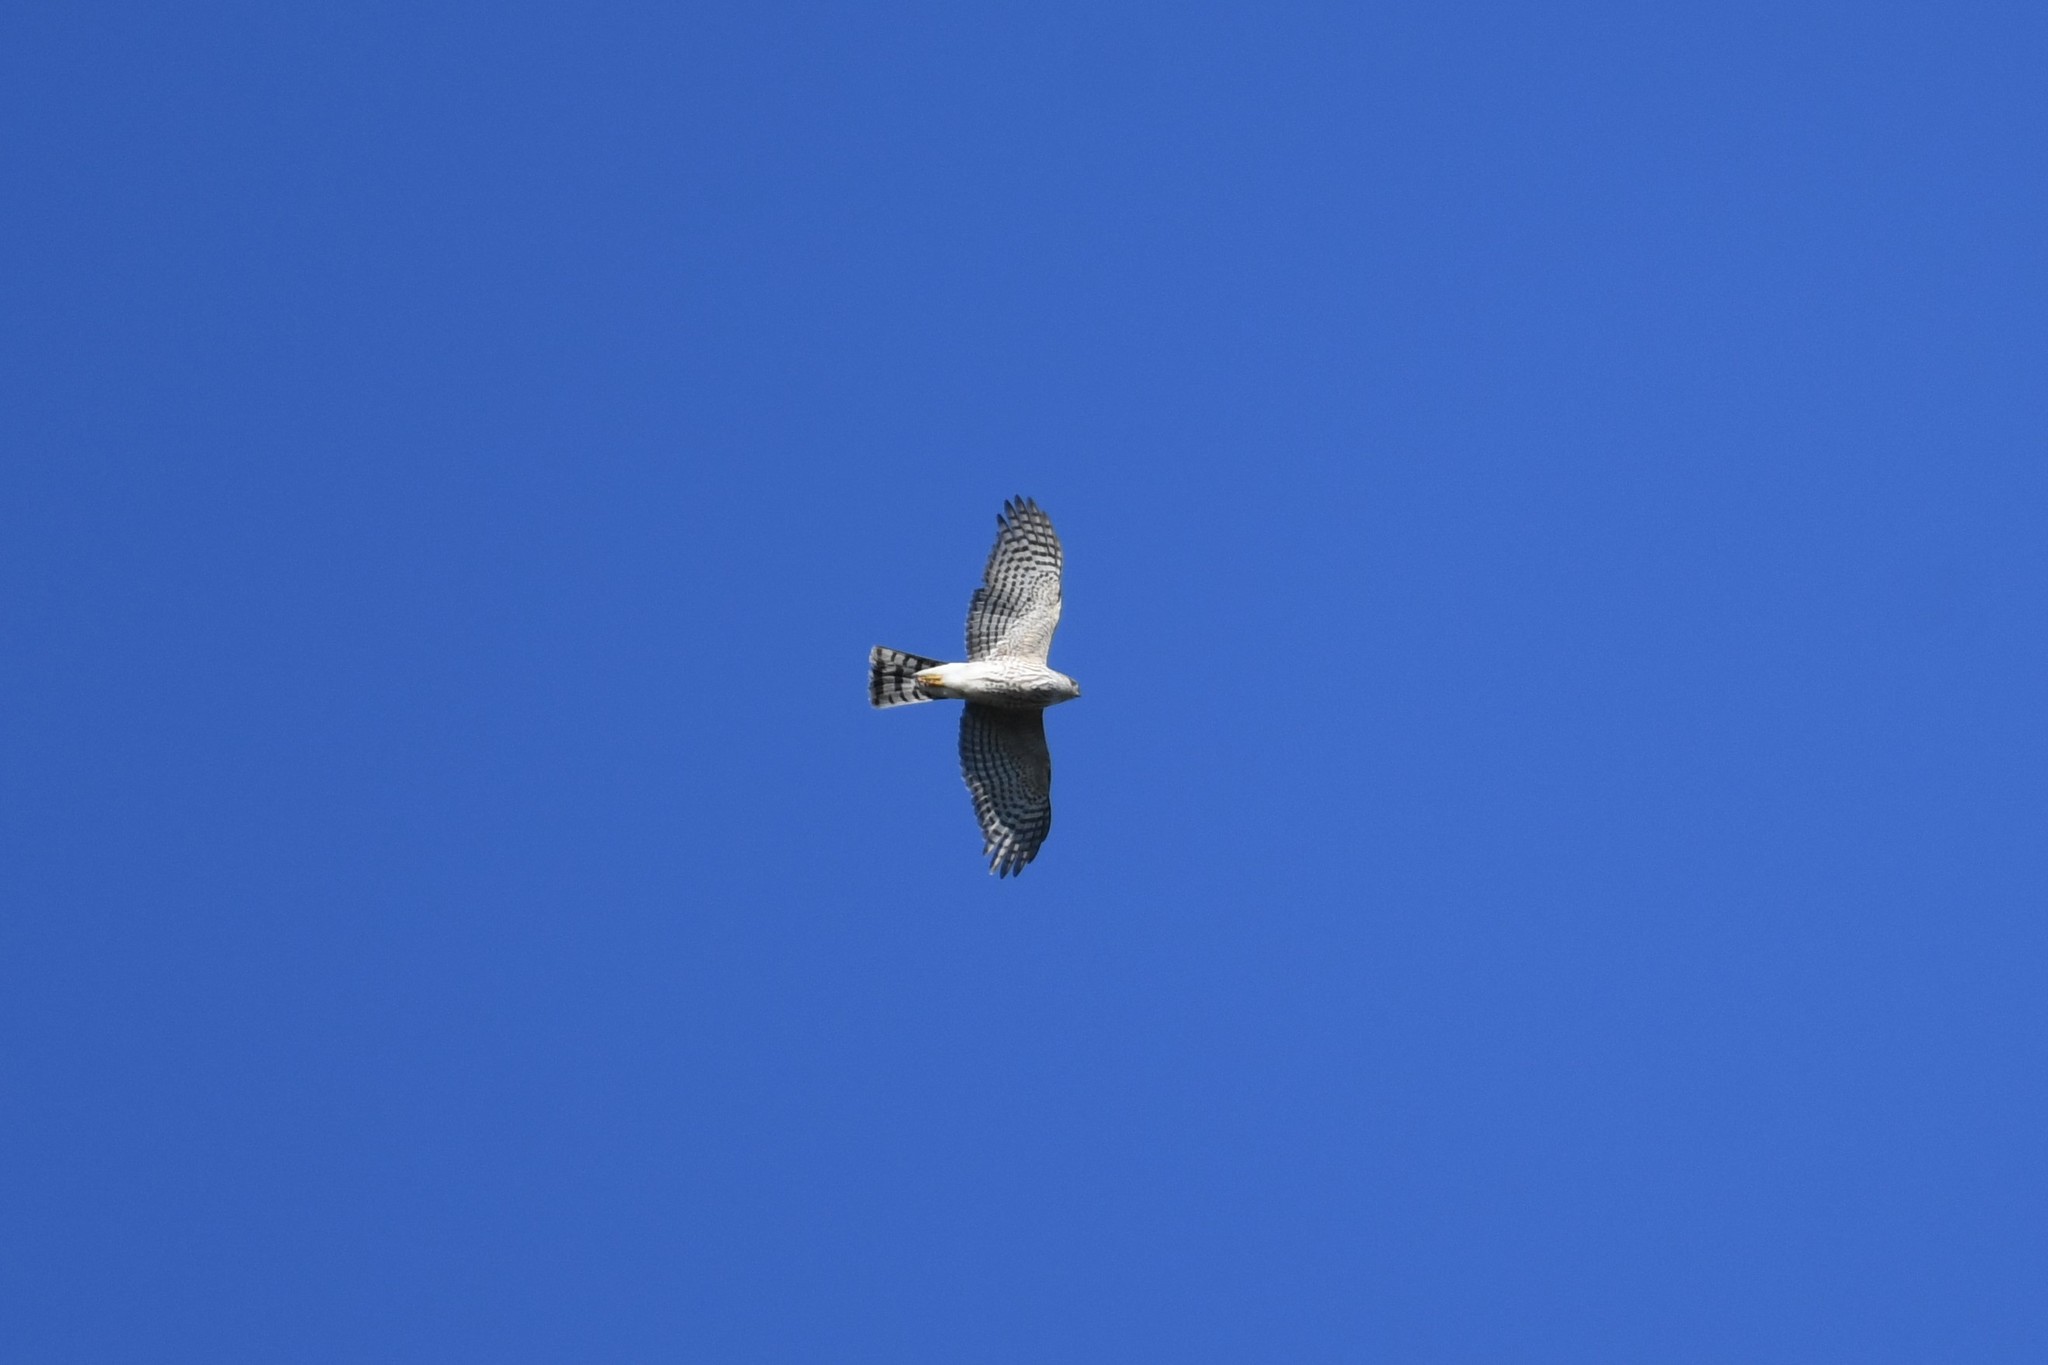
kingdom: Animalia
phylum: Chordata
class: Aves
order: Accipitriformes
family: Accipitridae
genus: Accipiter
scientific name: Accipiter striatus
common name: Sharp-shinned hawk
